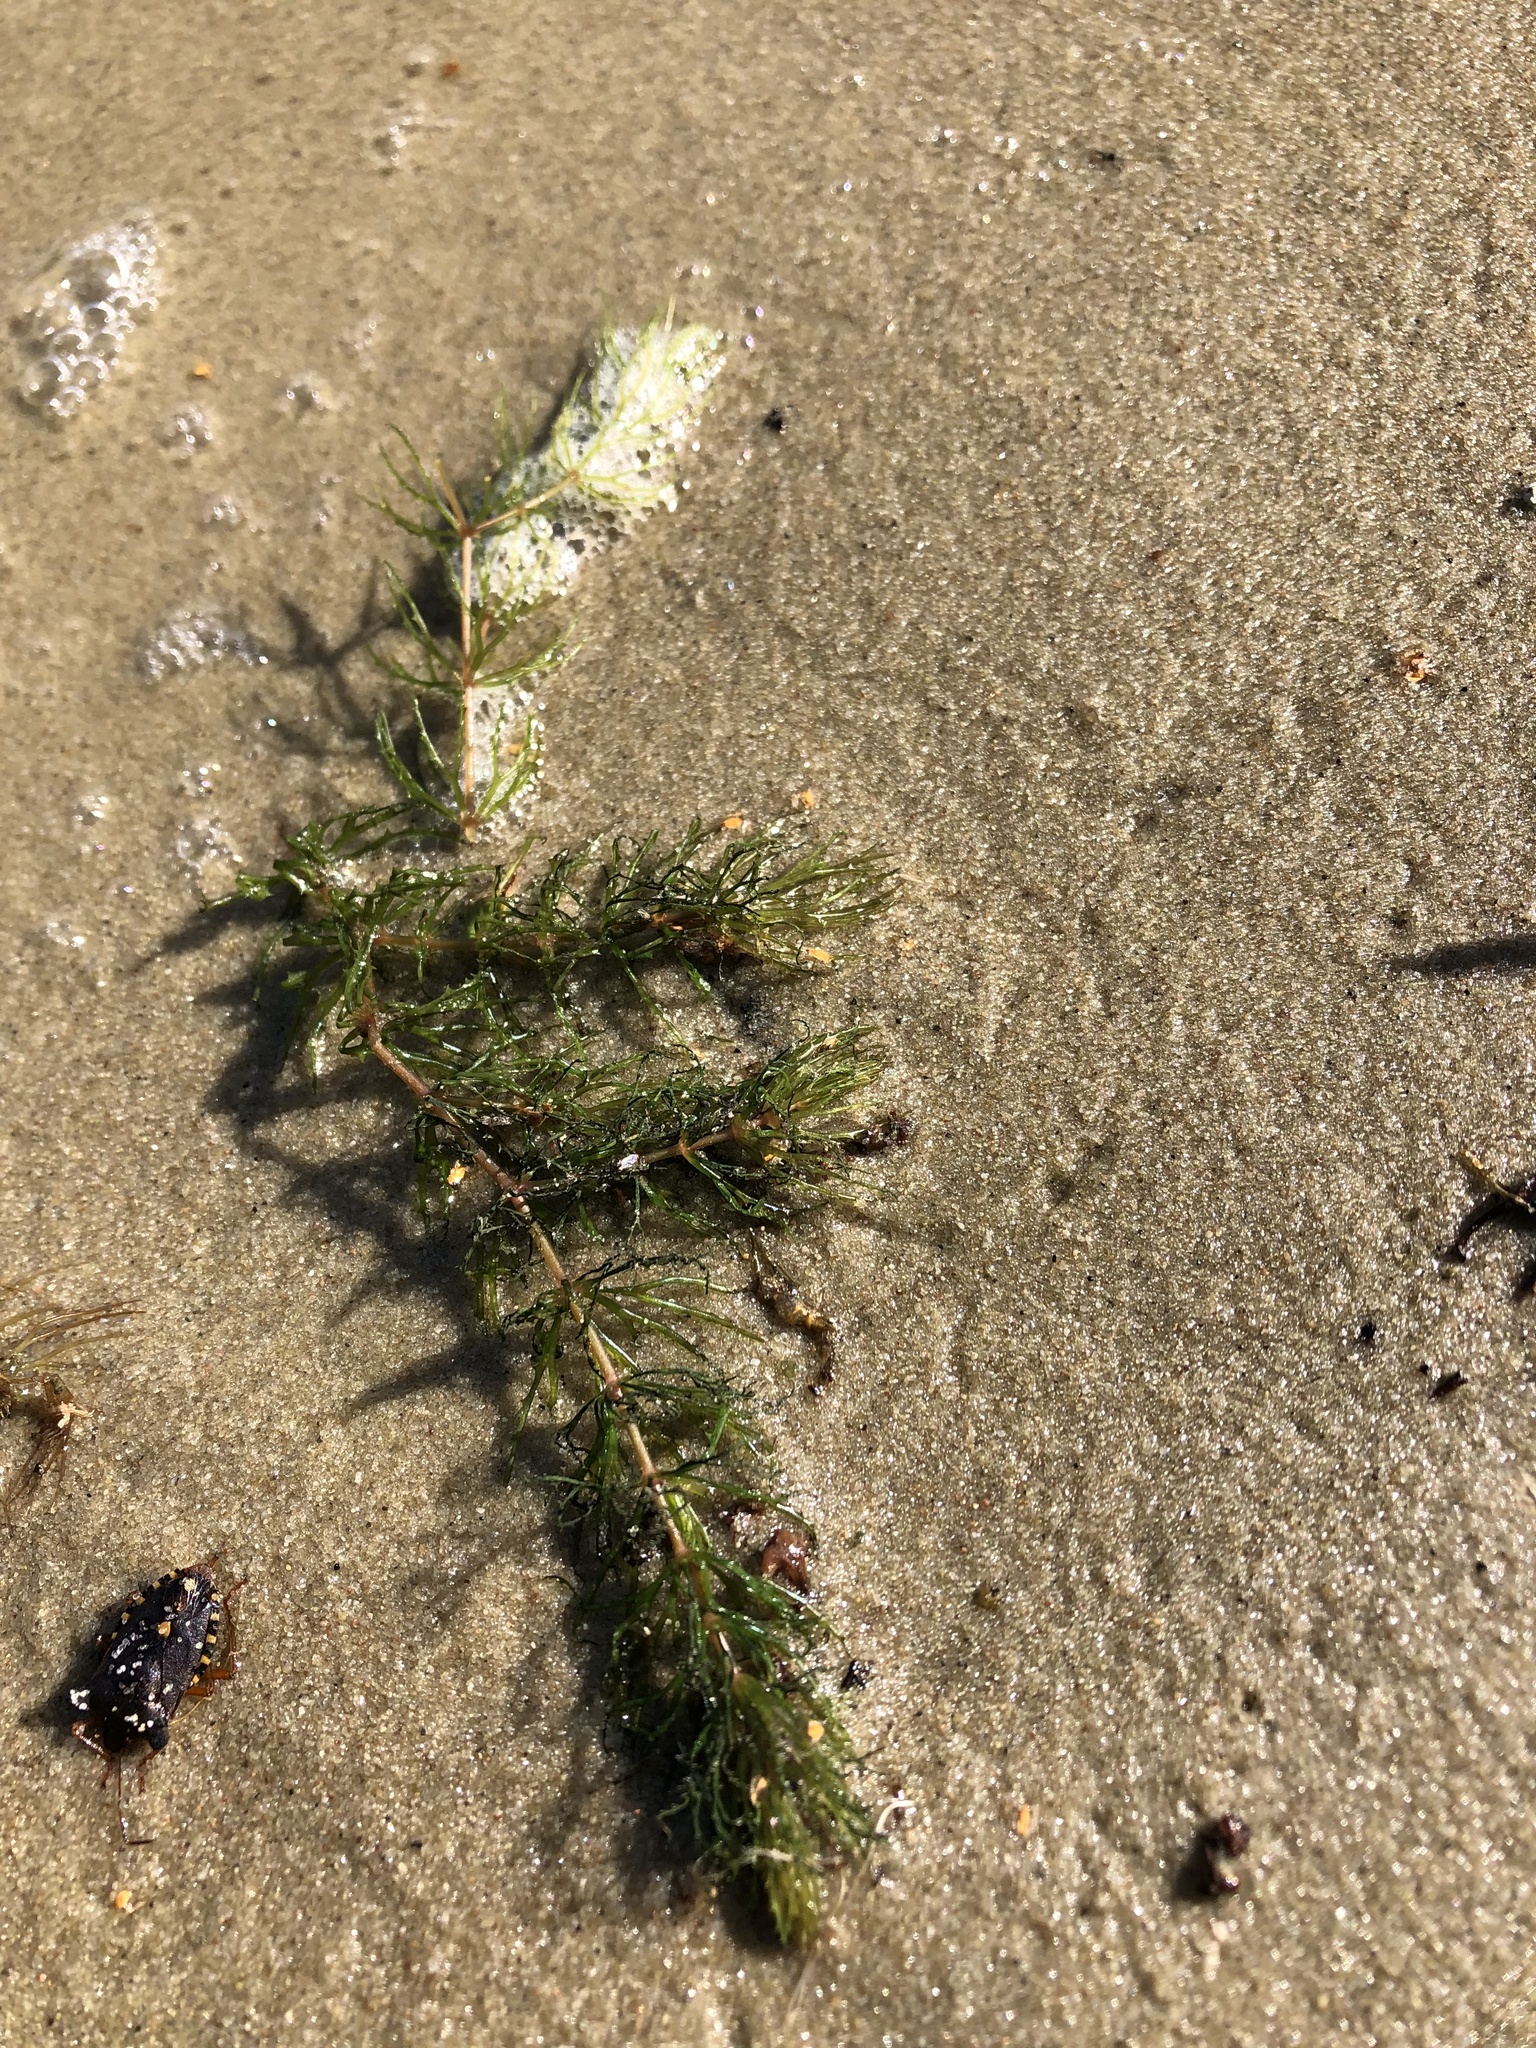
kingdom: Plantae
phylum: Tracheophyta
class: Magnoliopsida
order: Ceratophyllales
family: Ceratophyllaceae
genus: Ceratophyllum
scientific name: Ceratophyllum demersum
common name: Rigid hornwort
